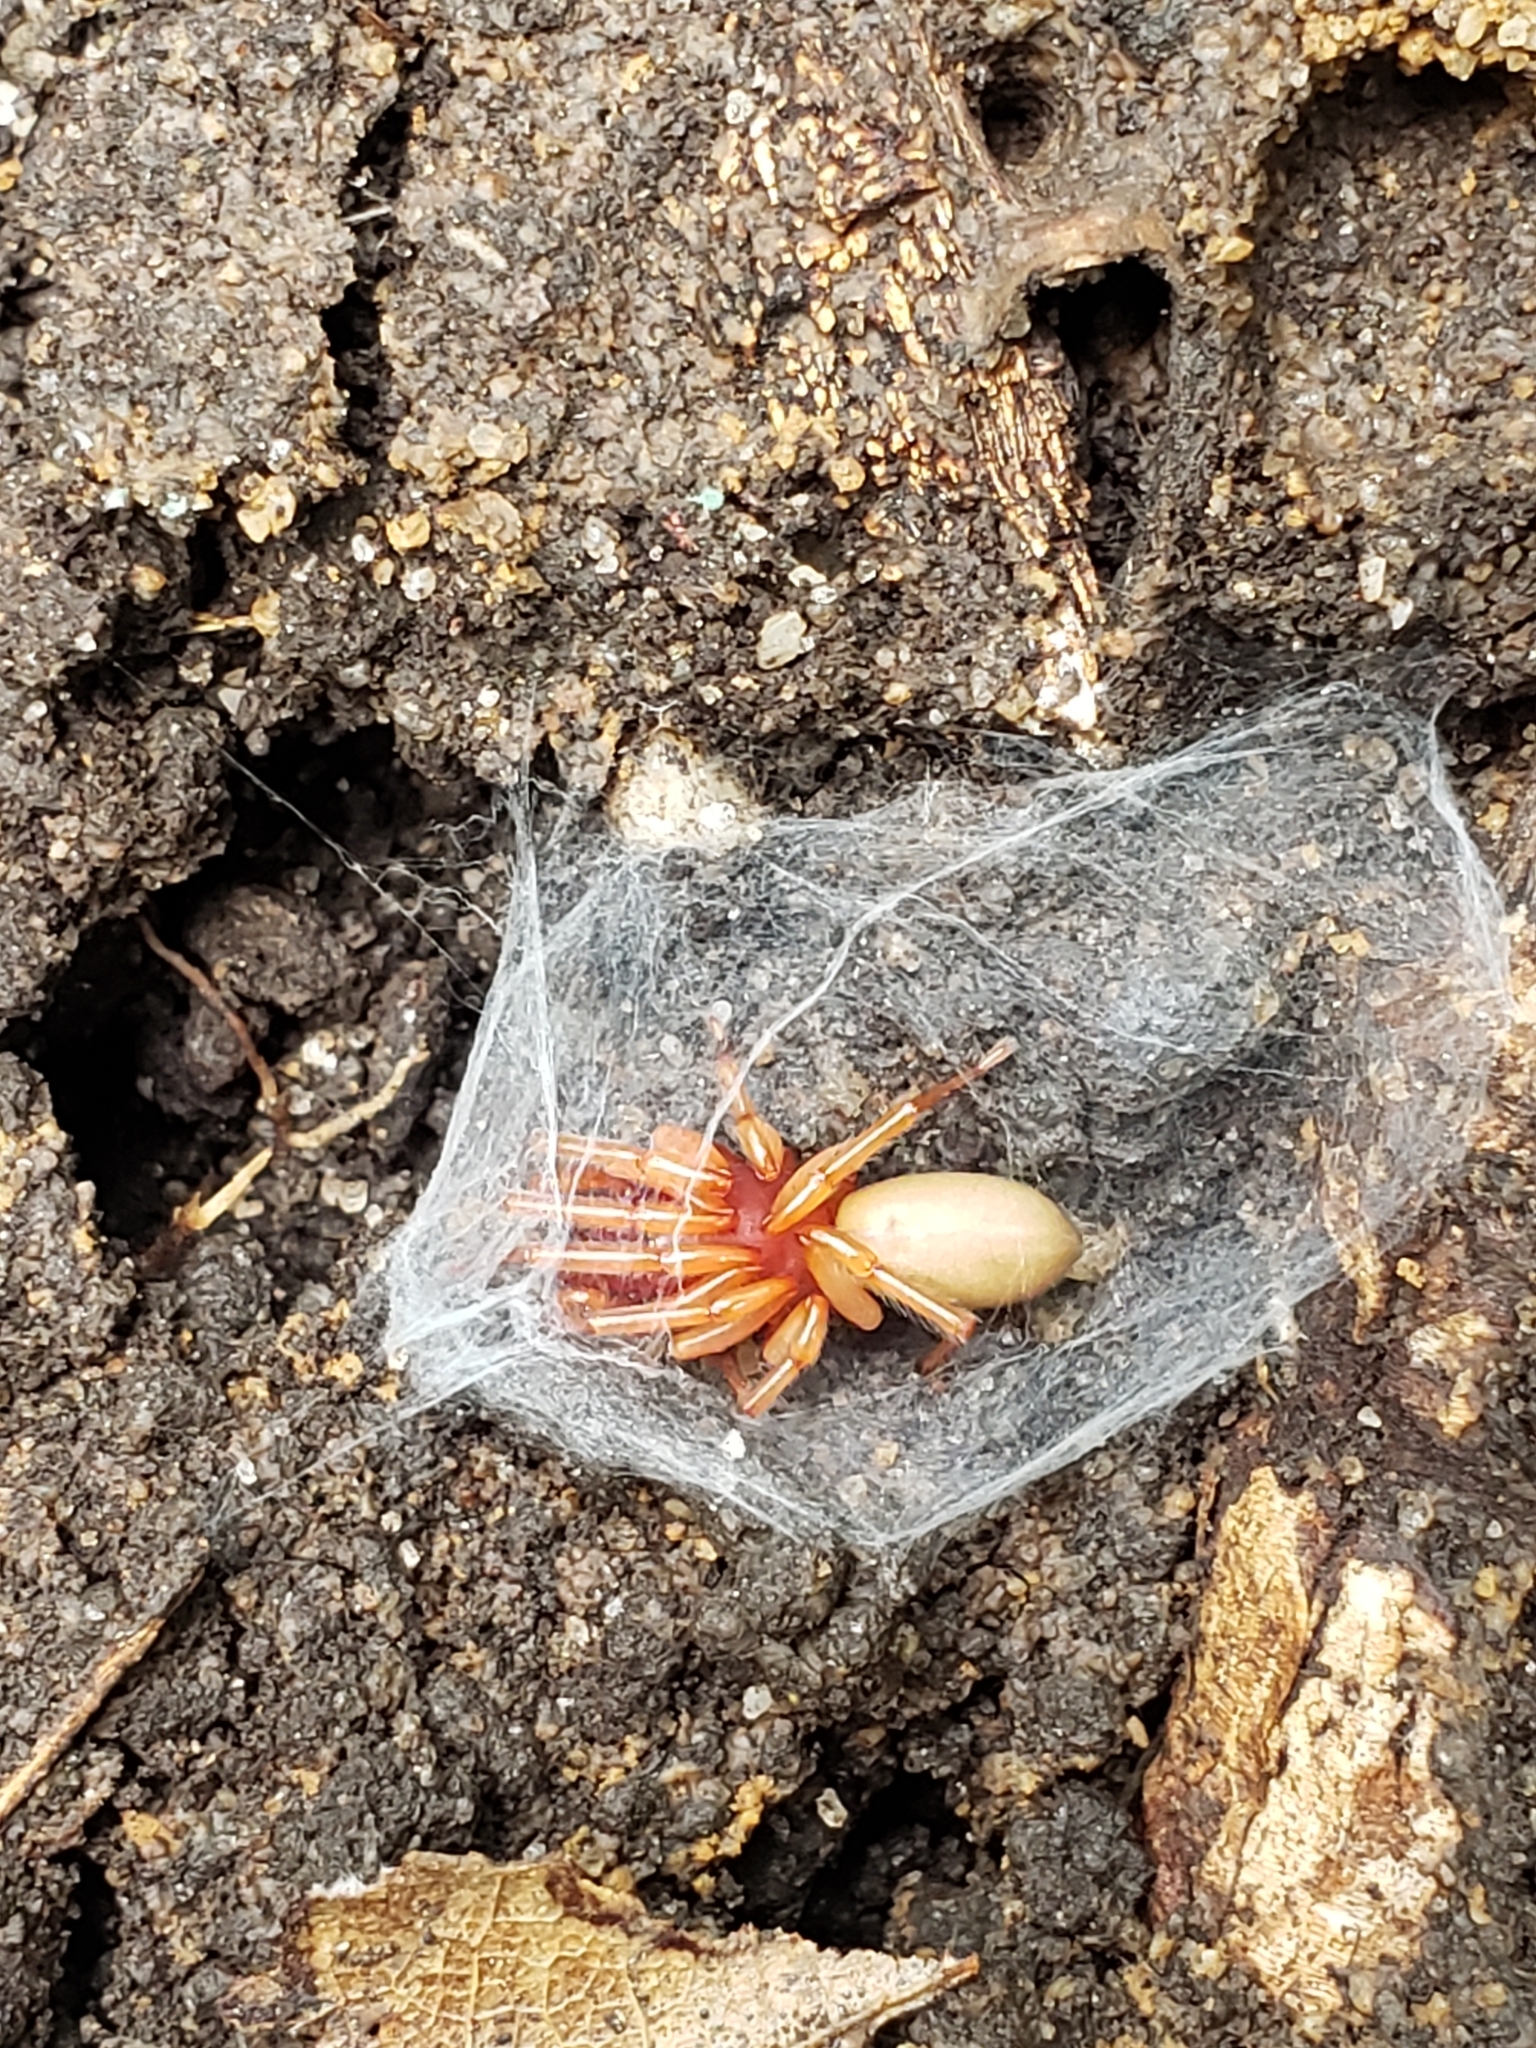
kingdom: Animalia
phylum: Arthropoda
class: Arachnida
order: Araneae
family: Dysderidae
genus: Dysdera
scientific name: Dysdera crocata
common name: Woodlouse spider
